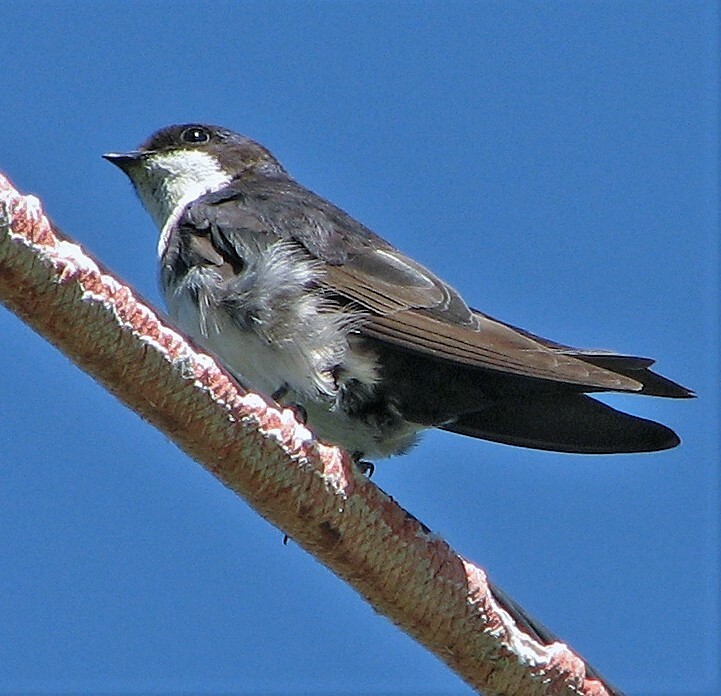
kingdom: Animalia
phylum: Chordata
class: Aves
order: Passeriformes
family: Hirundinidae
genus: Notiochelidon
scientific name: Notiochelidon cyanoleuca
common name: Blue-and-white swallow
